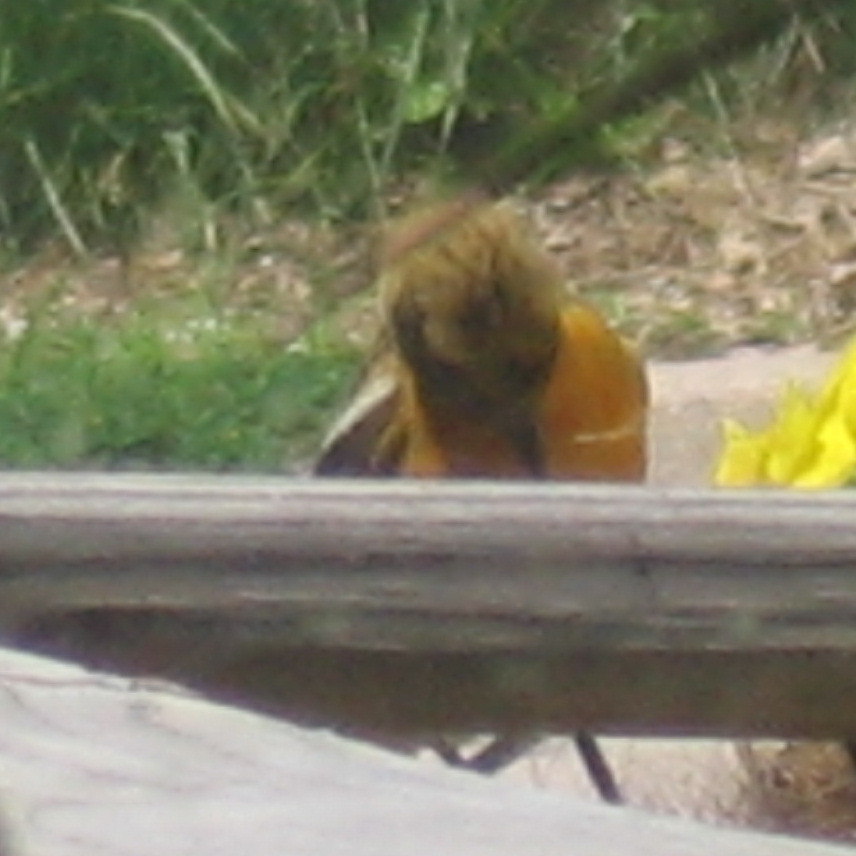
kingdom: Animalia
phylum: Chordata
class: Aves
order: Passeriformes
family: Icteridae
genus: Icterus
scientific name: Icterus galbula
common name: Baltimore oriole
